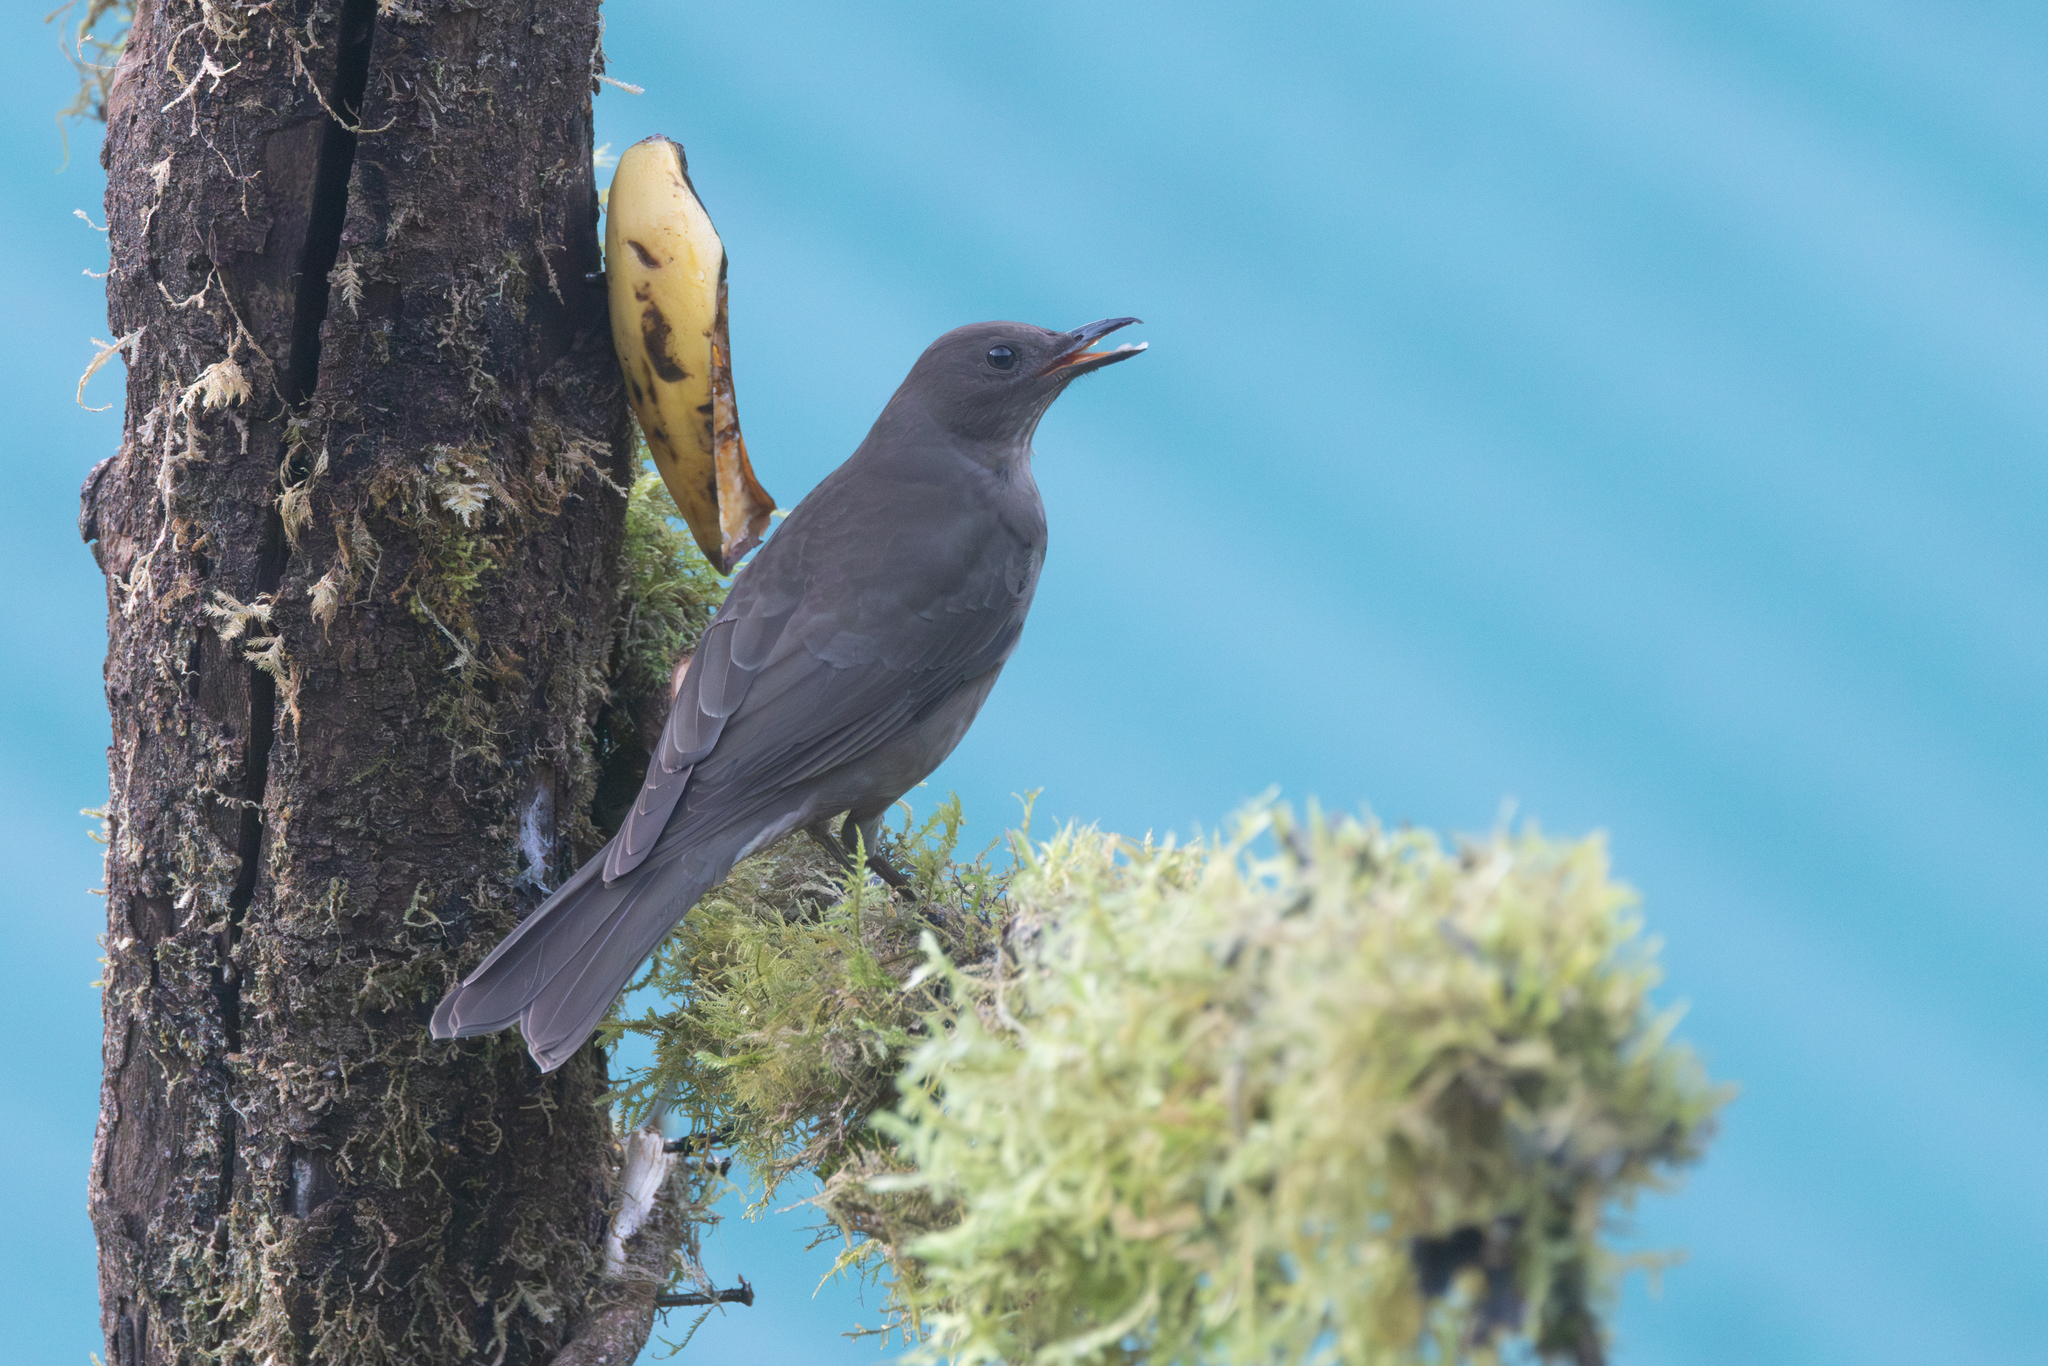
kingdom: Animalia
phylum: Chordata
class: Aves
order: Passeriformes
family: Turdidae
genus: Turdus
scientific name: Turdus plebejus
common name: Mountain thrush
